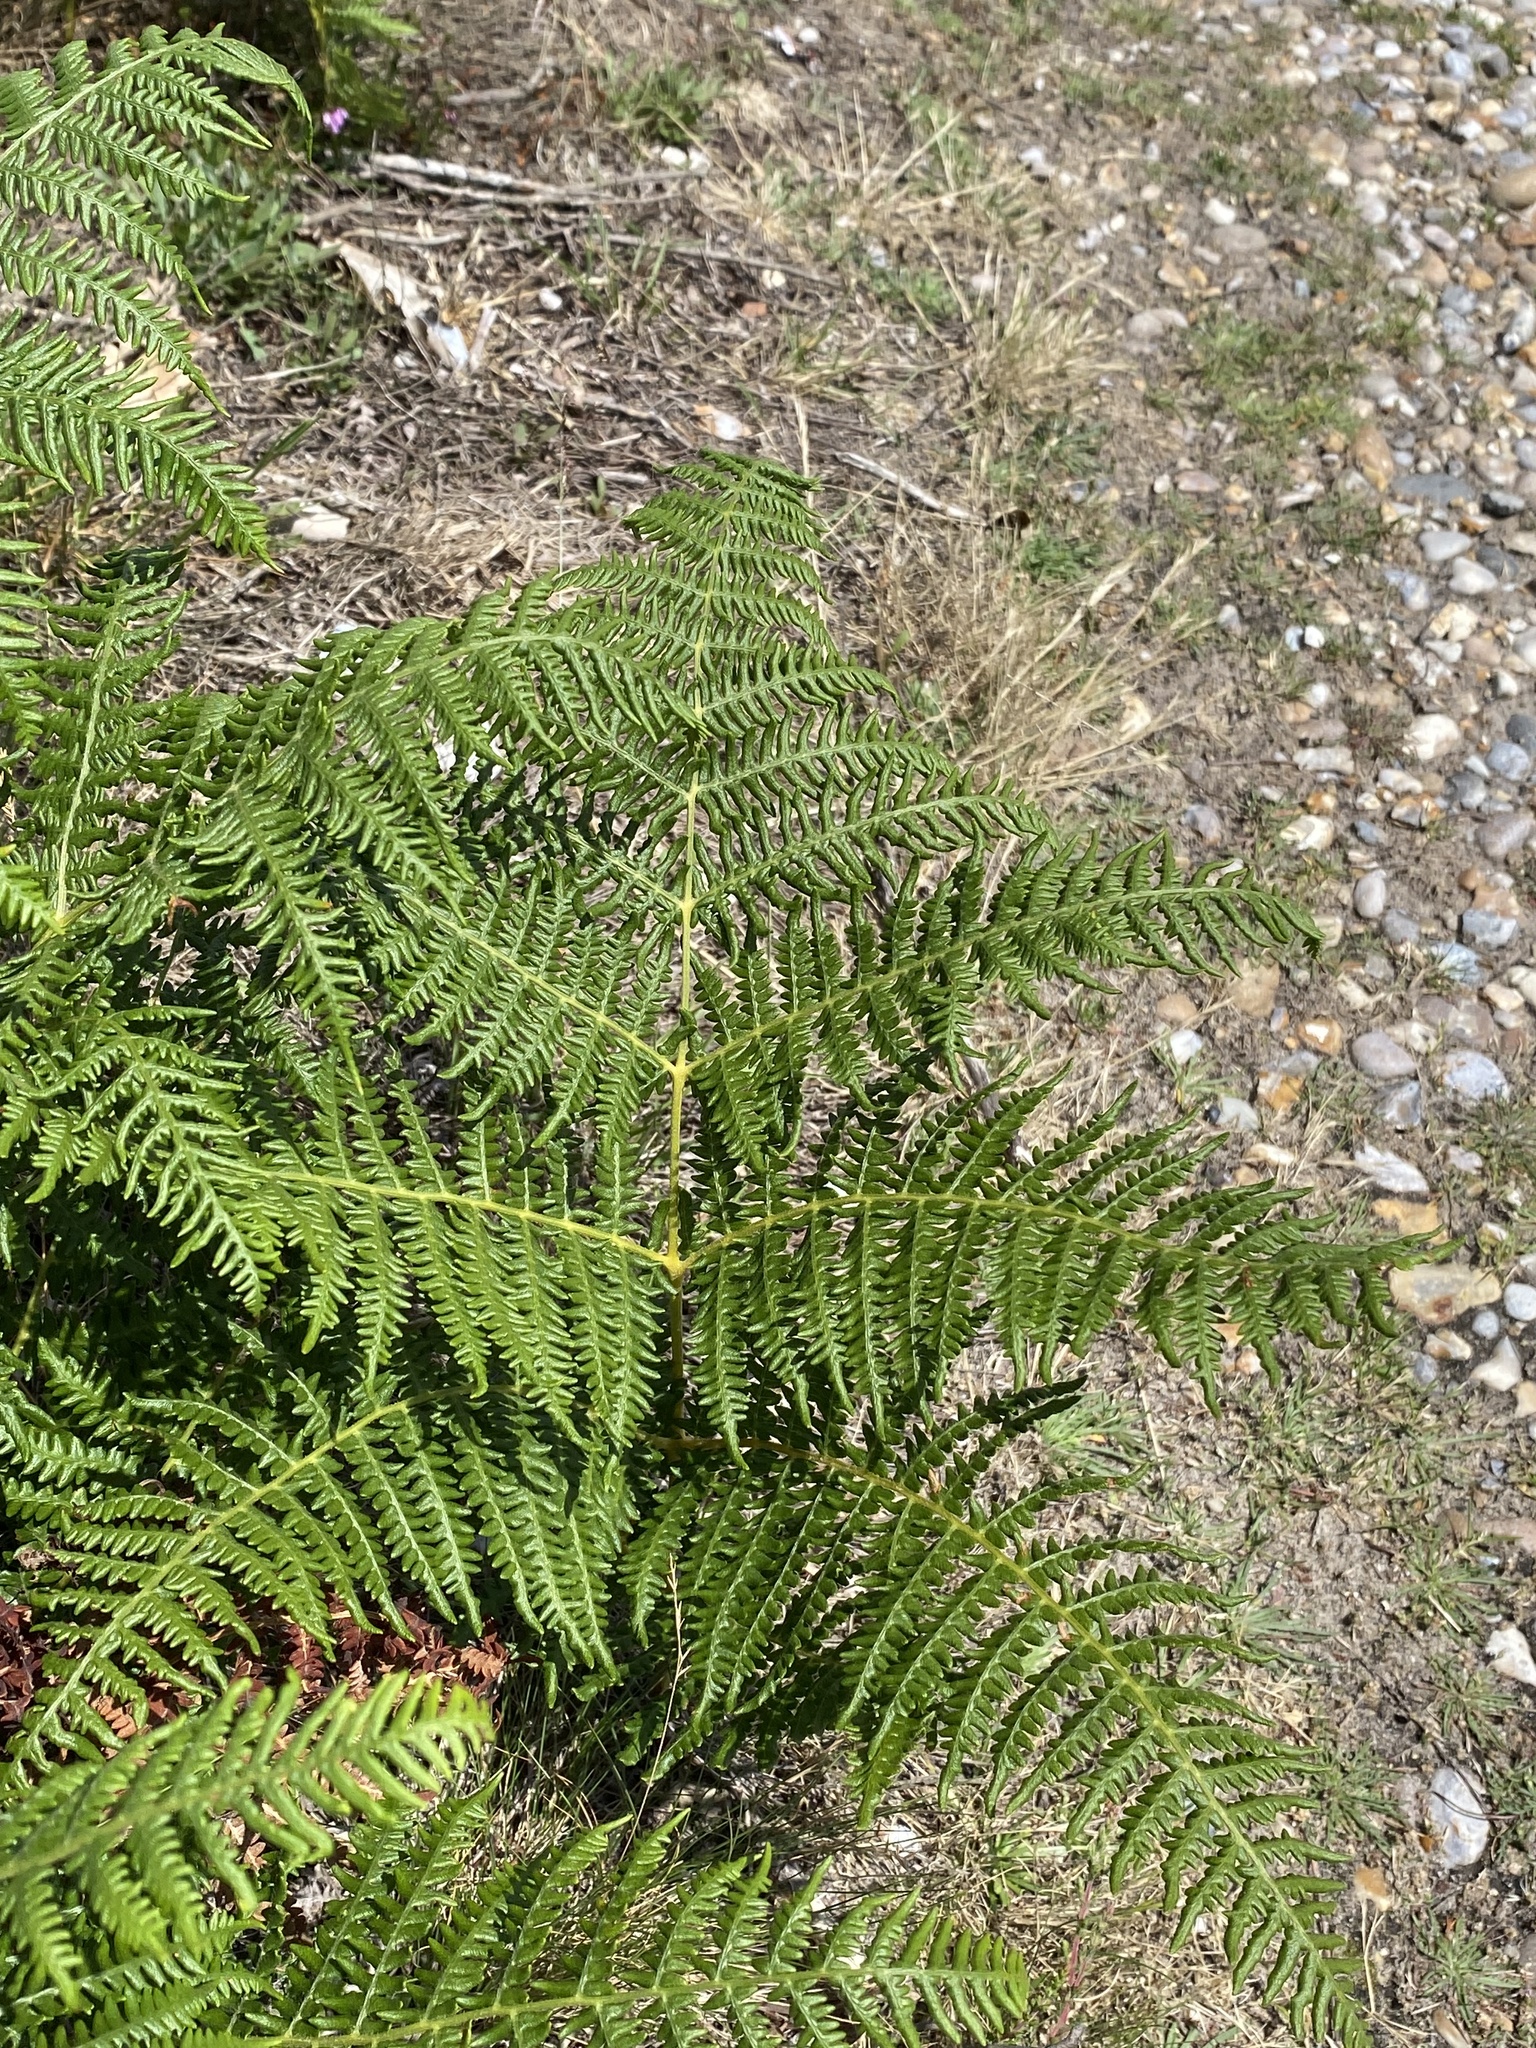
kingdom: Plantae
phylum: Tracheophyta
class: Polypodiopsida
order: Polypodiales
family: Dennstaedtiaceae
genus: Pteridium
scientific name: Pteridium aquilinum
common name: Bracken
